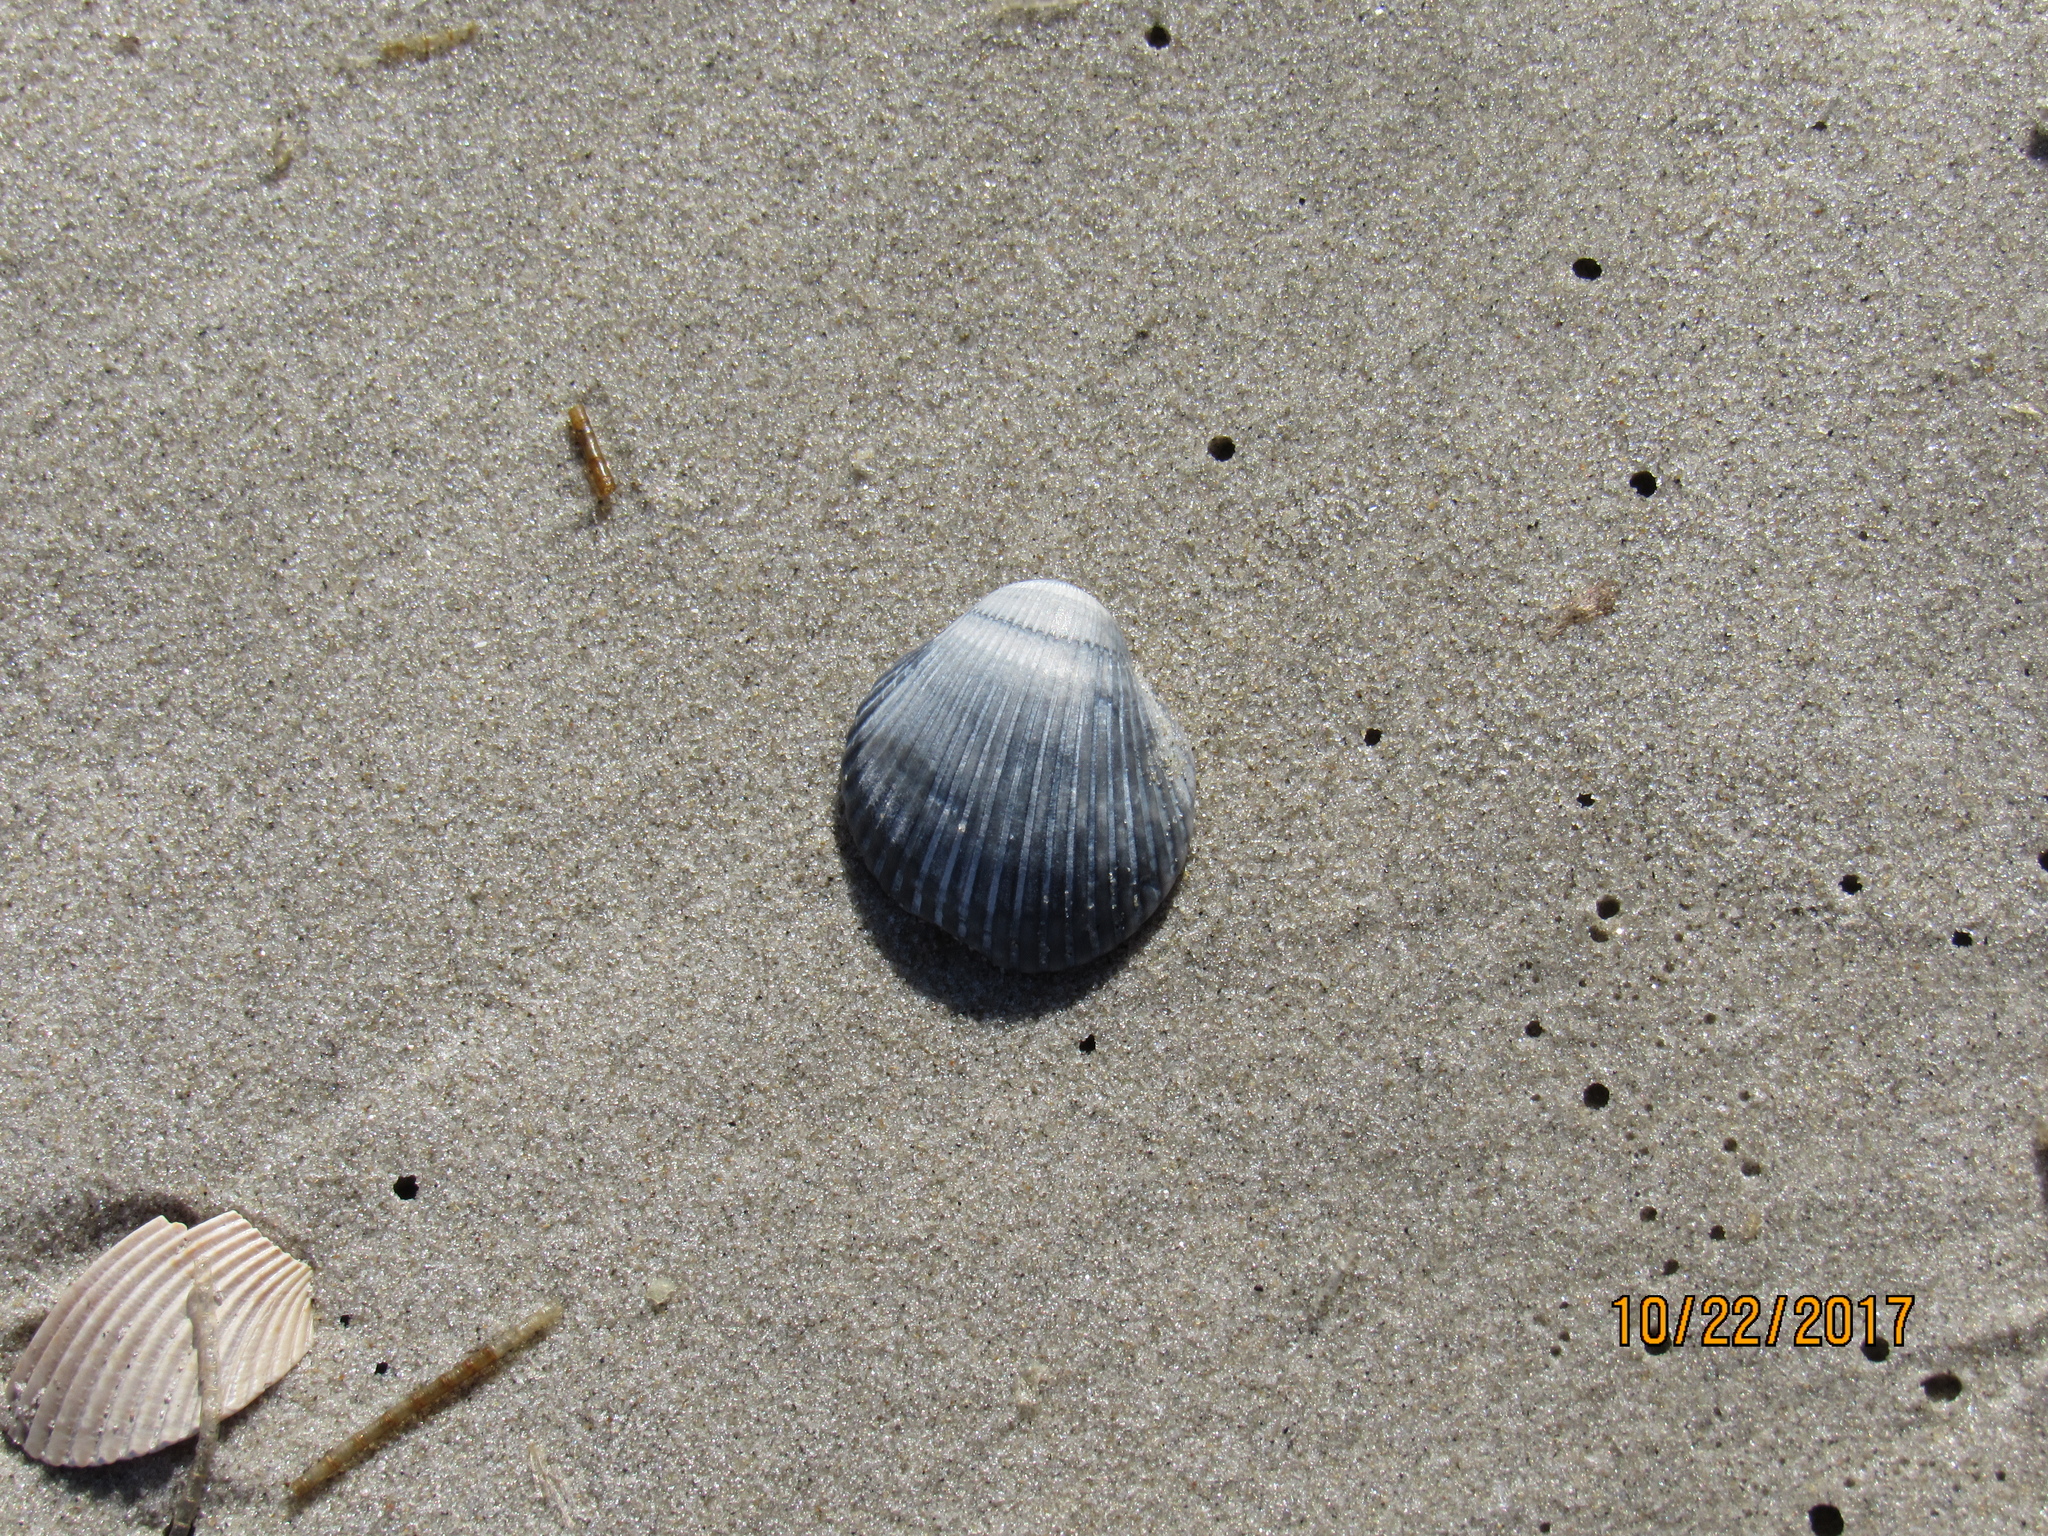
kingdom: Animalia
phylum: Mollusca
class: Bivalvia
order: Arcida
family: Arcidae
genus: Lunarca
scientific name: Lunarca ovalis
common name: Blood ark
